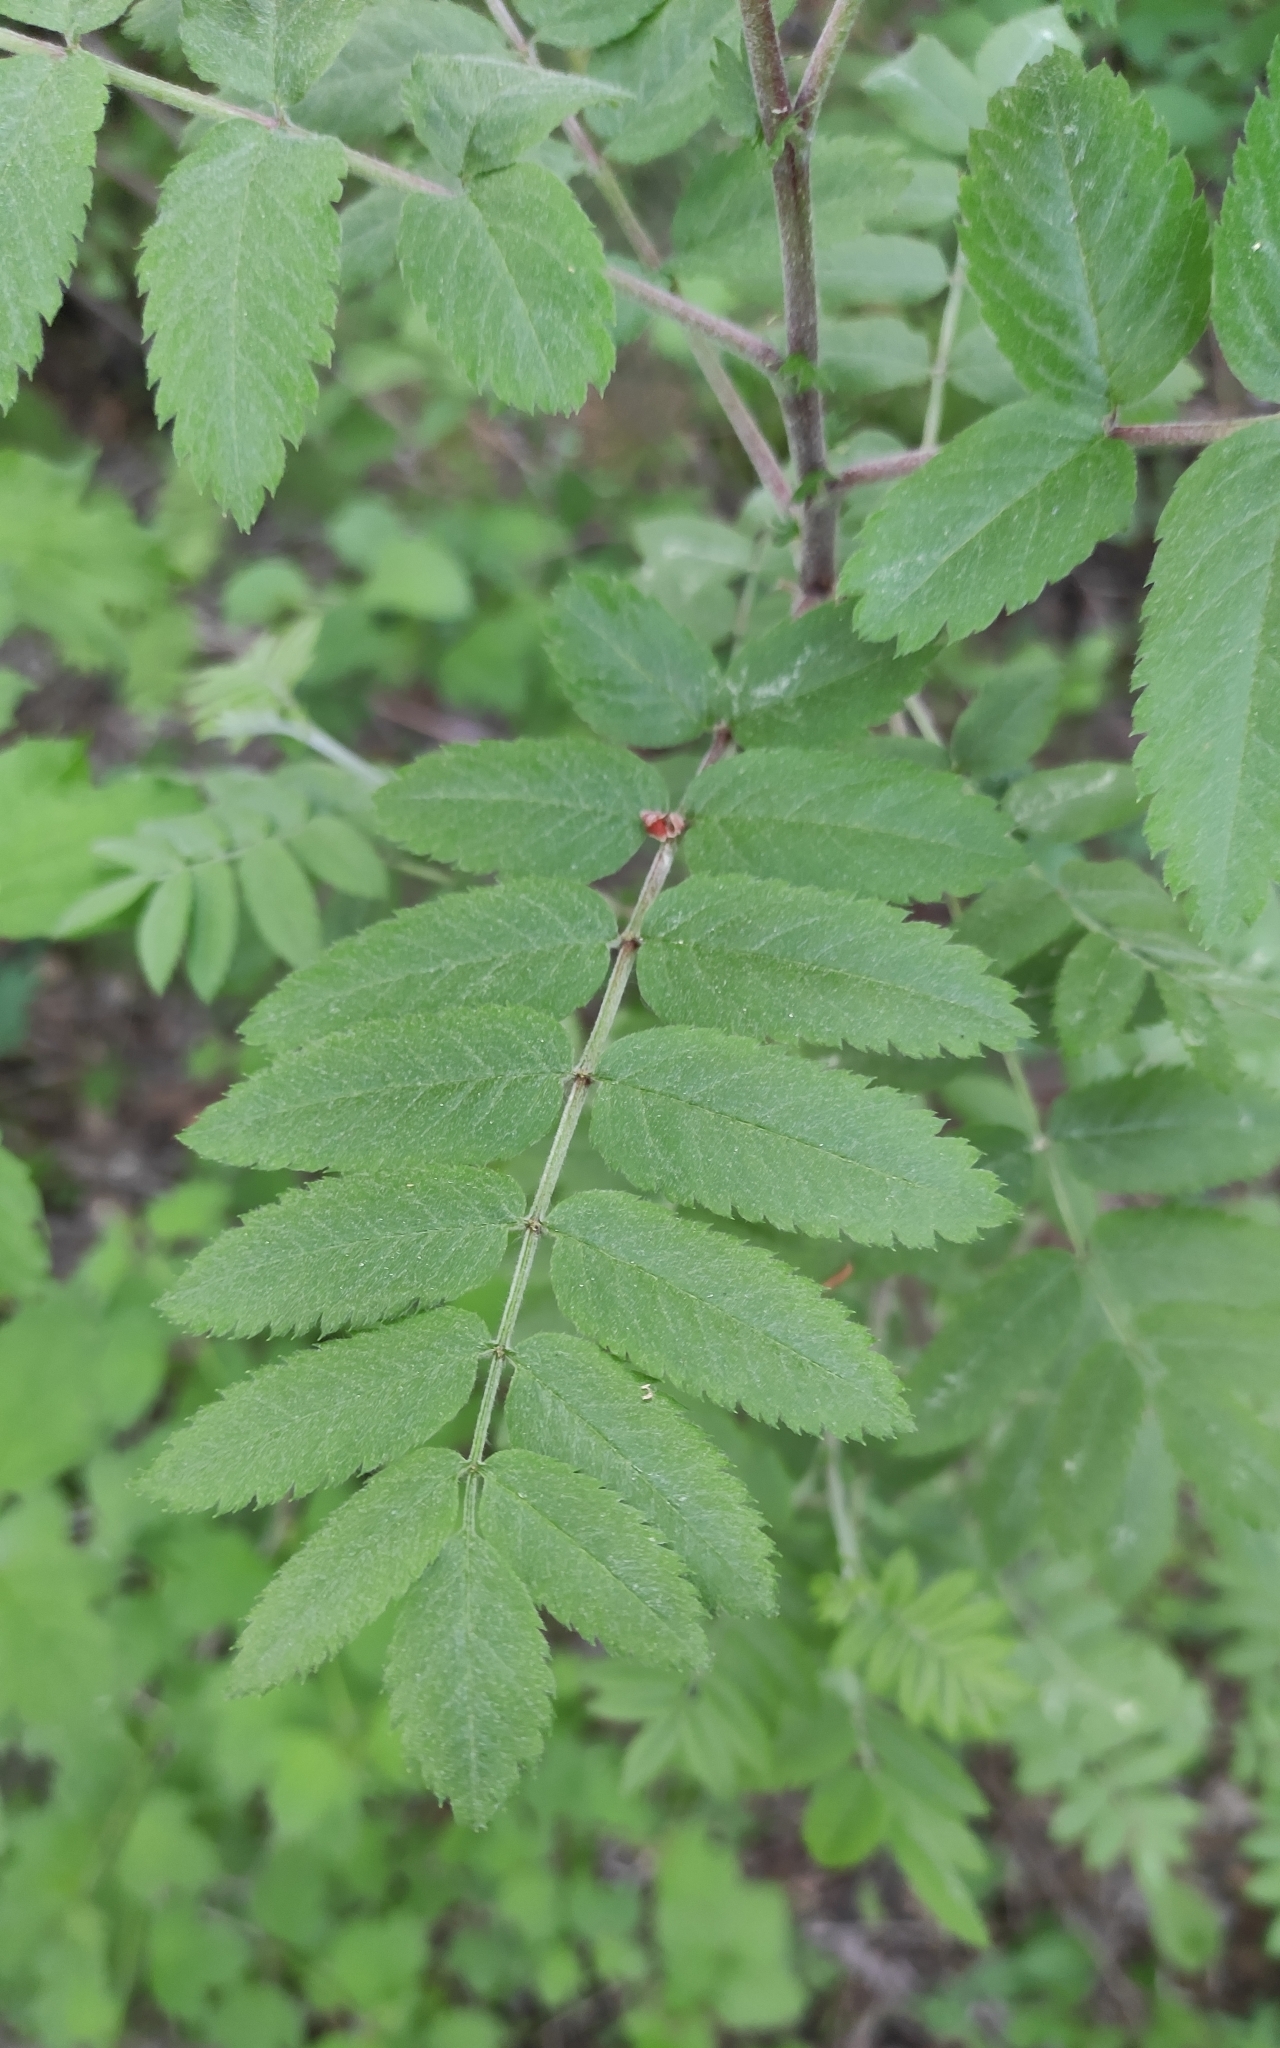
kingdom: Plantae
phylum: Tracheophyta
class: Magnoliopsida
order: Rosales
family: Rosaceae
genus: Sorbus
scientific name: Sorbus aucuparia
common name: Rowan
